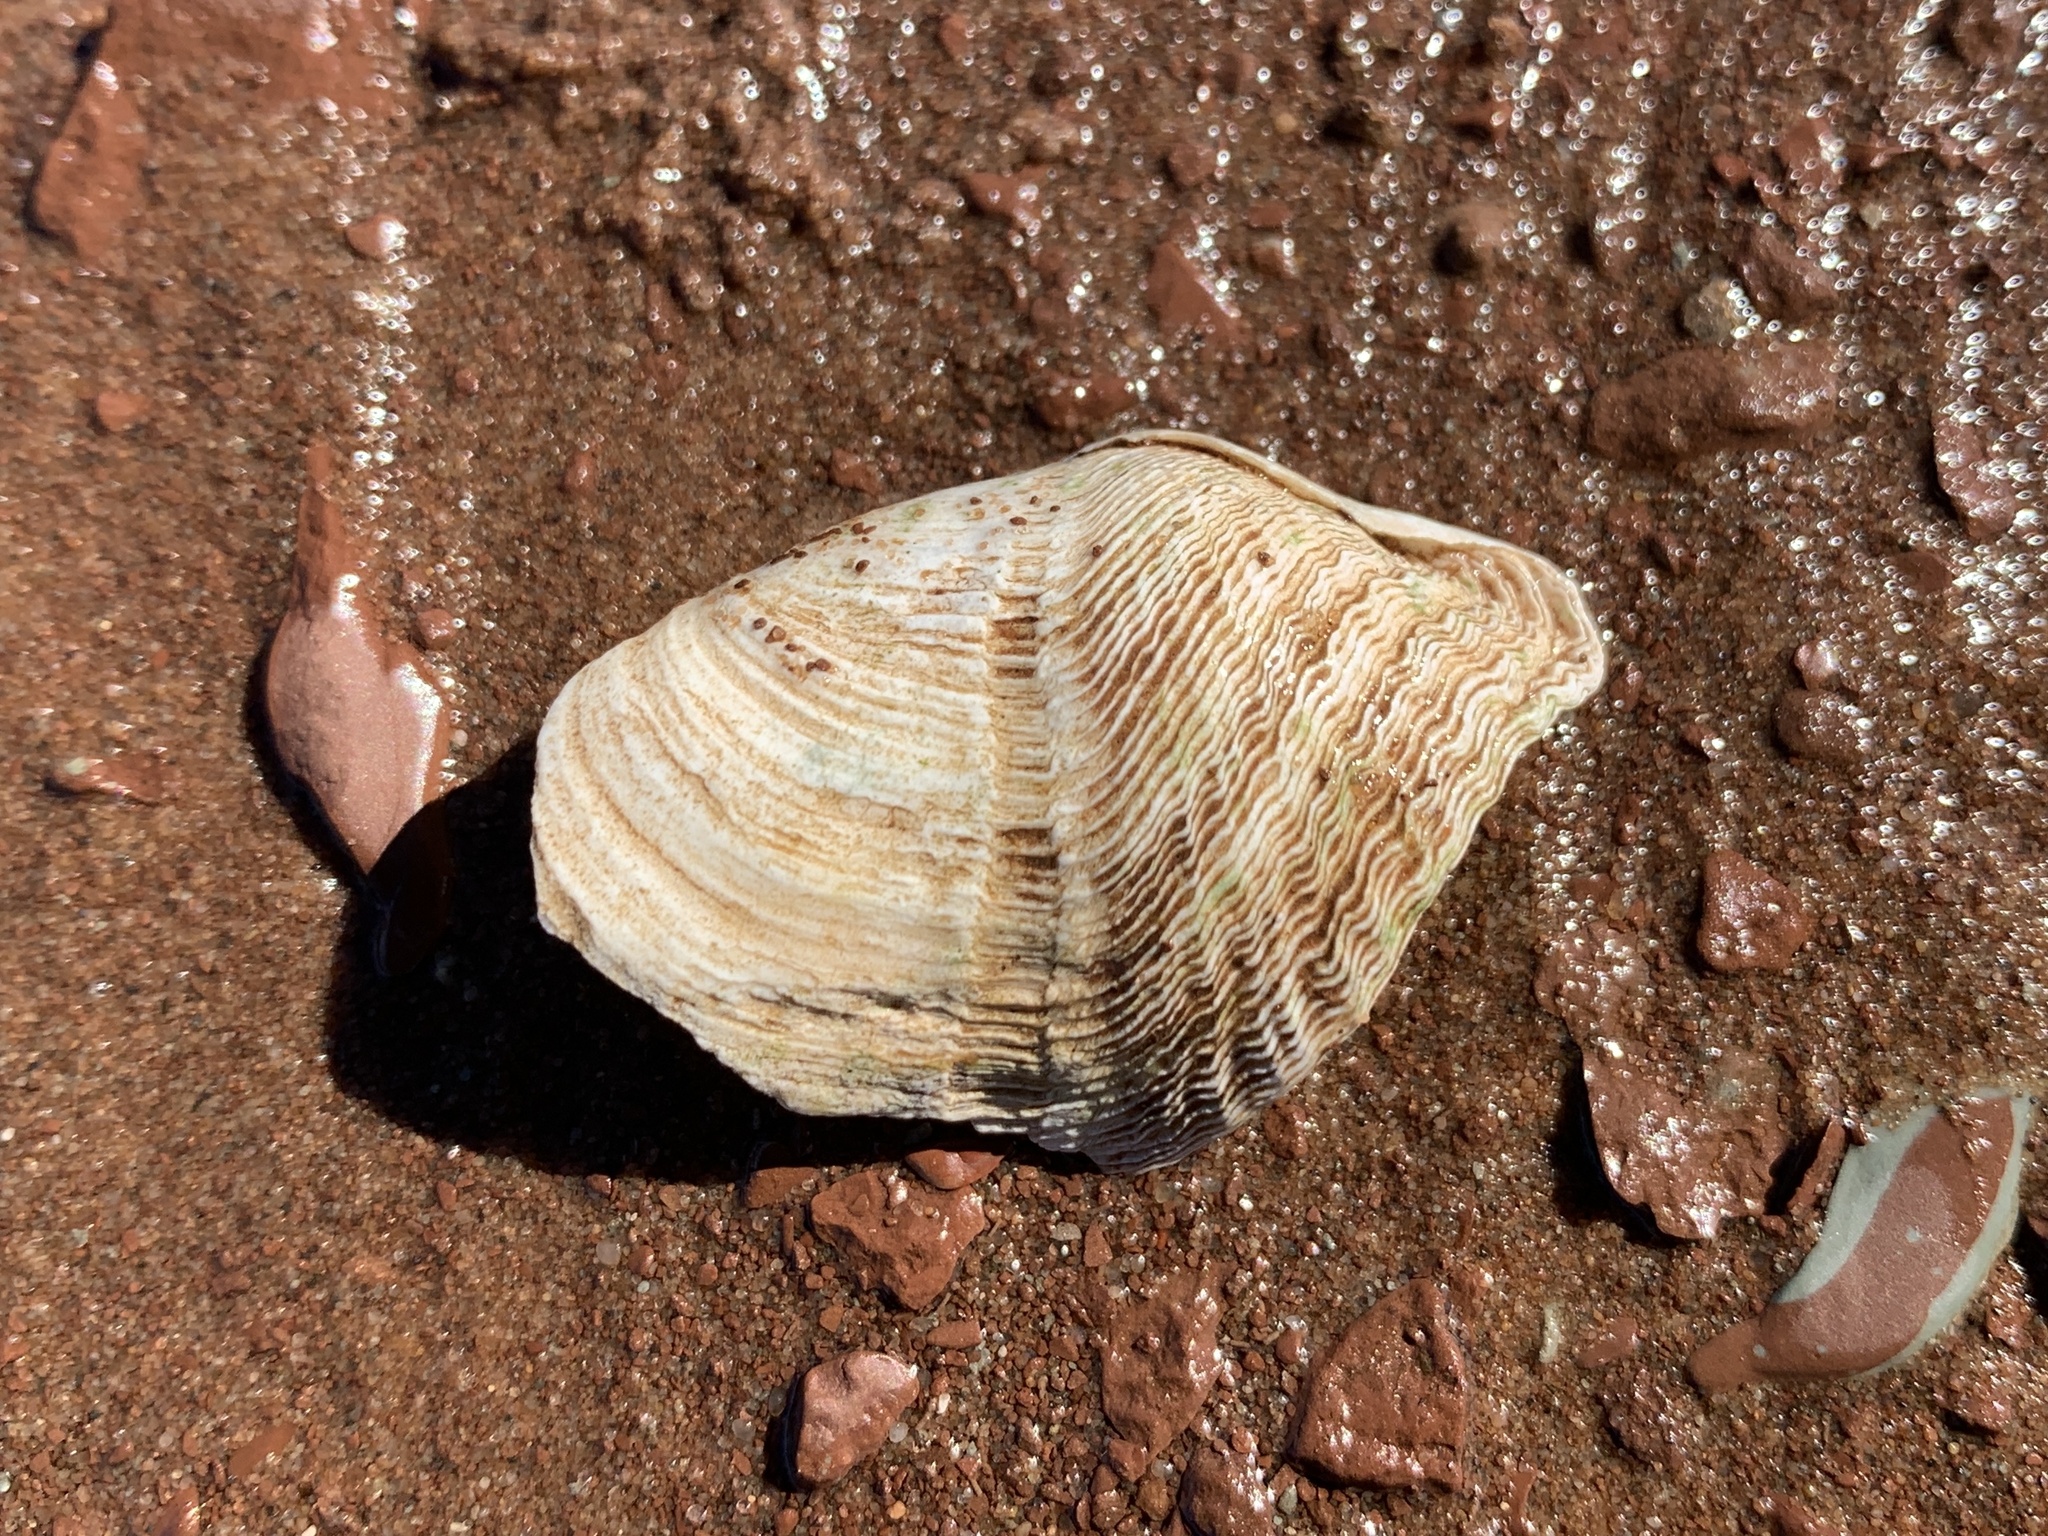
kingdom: Animalia
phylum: Mollusca
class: Bivalvia
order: Myida
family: Pholadidae
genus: Zirfaea
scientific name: Zirfaea crispata
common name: Oval piddock
